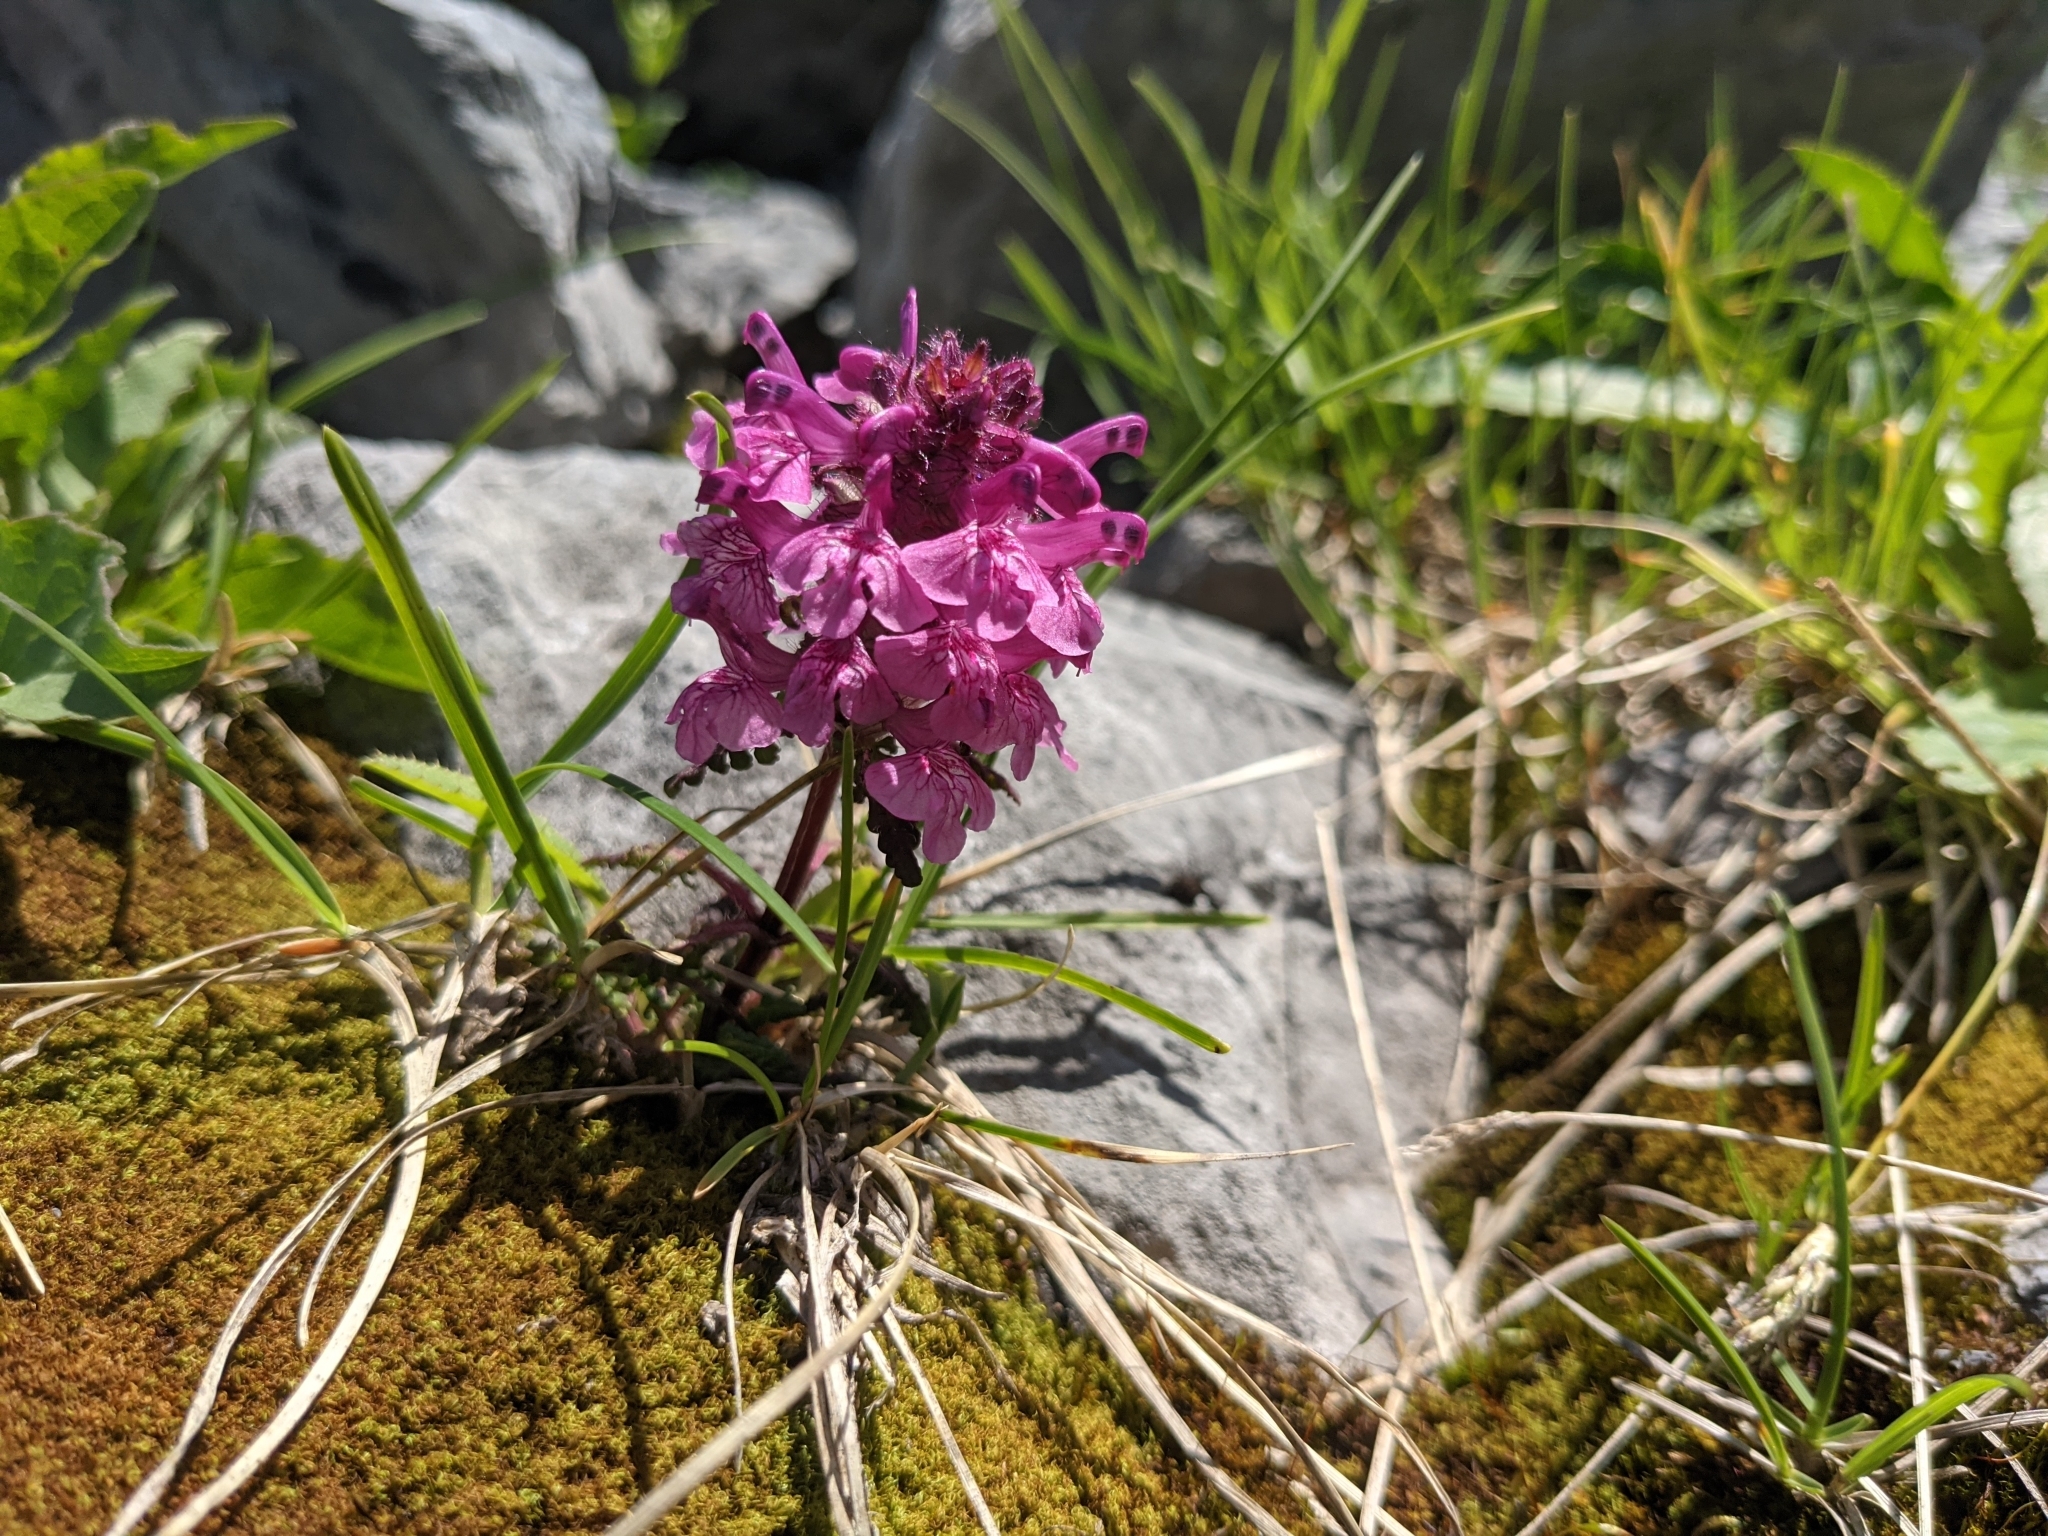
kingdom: Plantae
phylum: Tracheophyta
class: Magnoliopsida
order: Lamiales
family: Orobanchaceae
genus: Pedicularis
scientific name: Pedicularis verticillata
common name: Whorled lousewort
